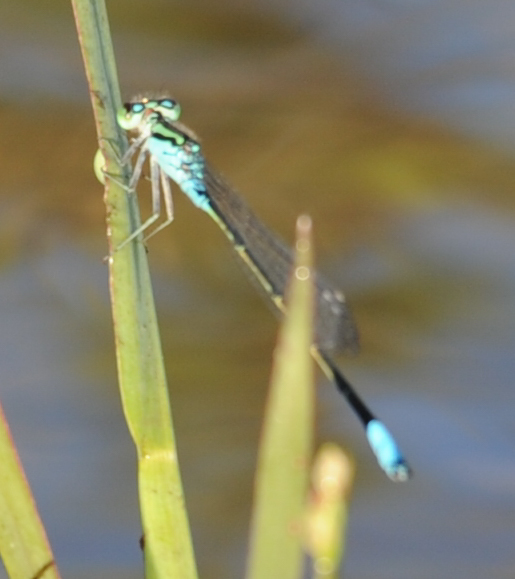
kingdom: Animalia
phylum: Arthropoda
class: Insecta
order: Odonata
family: Coenagrionidae
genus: Pseudagrion
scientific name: Pseudagrion coeleste
